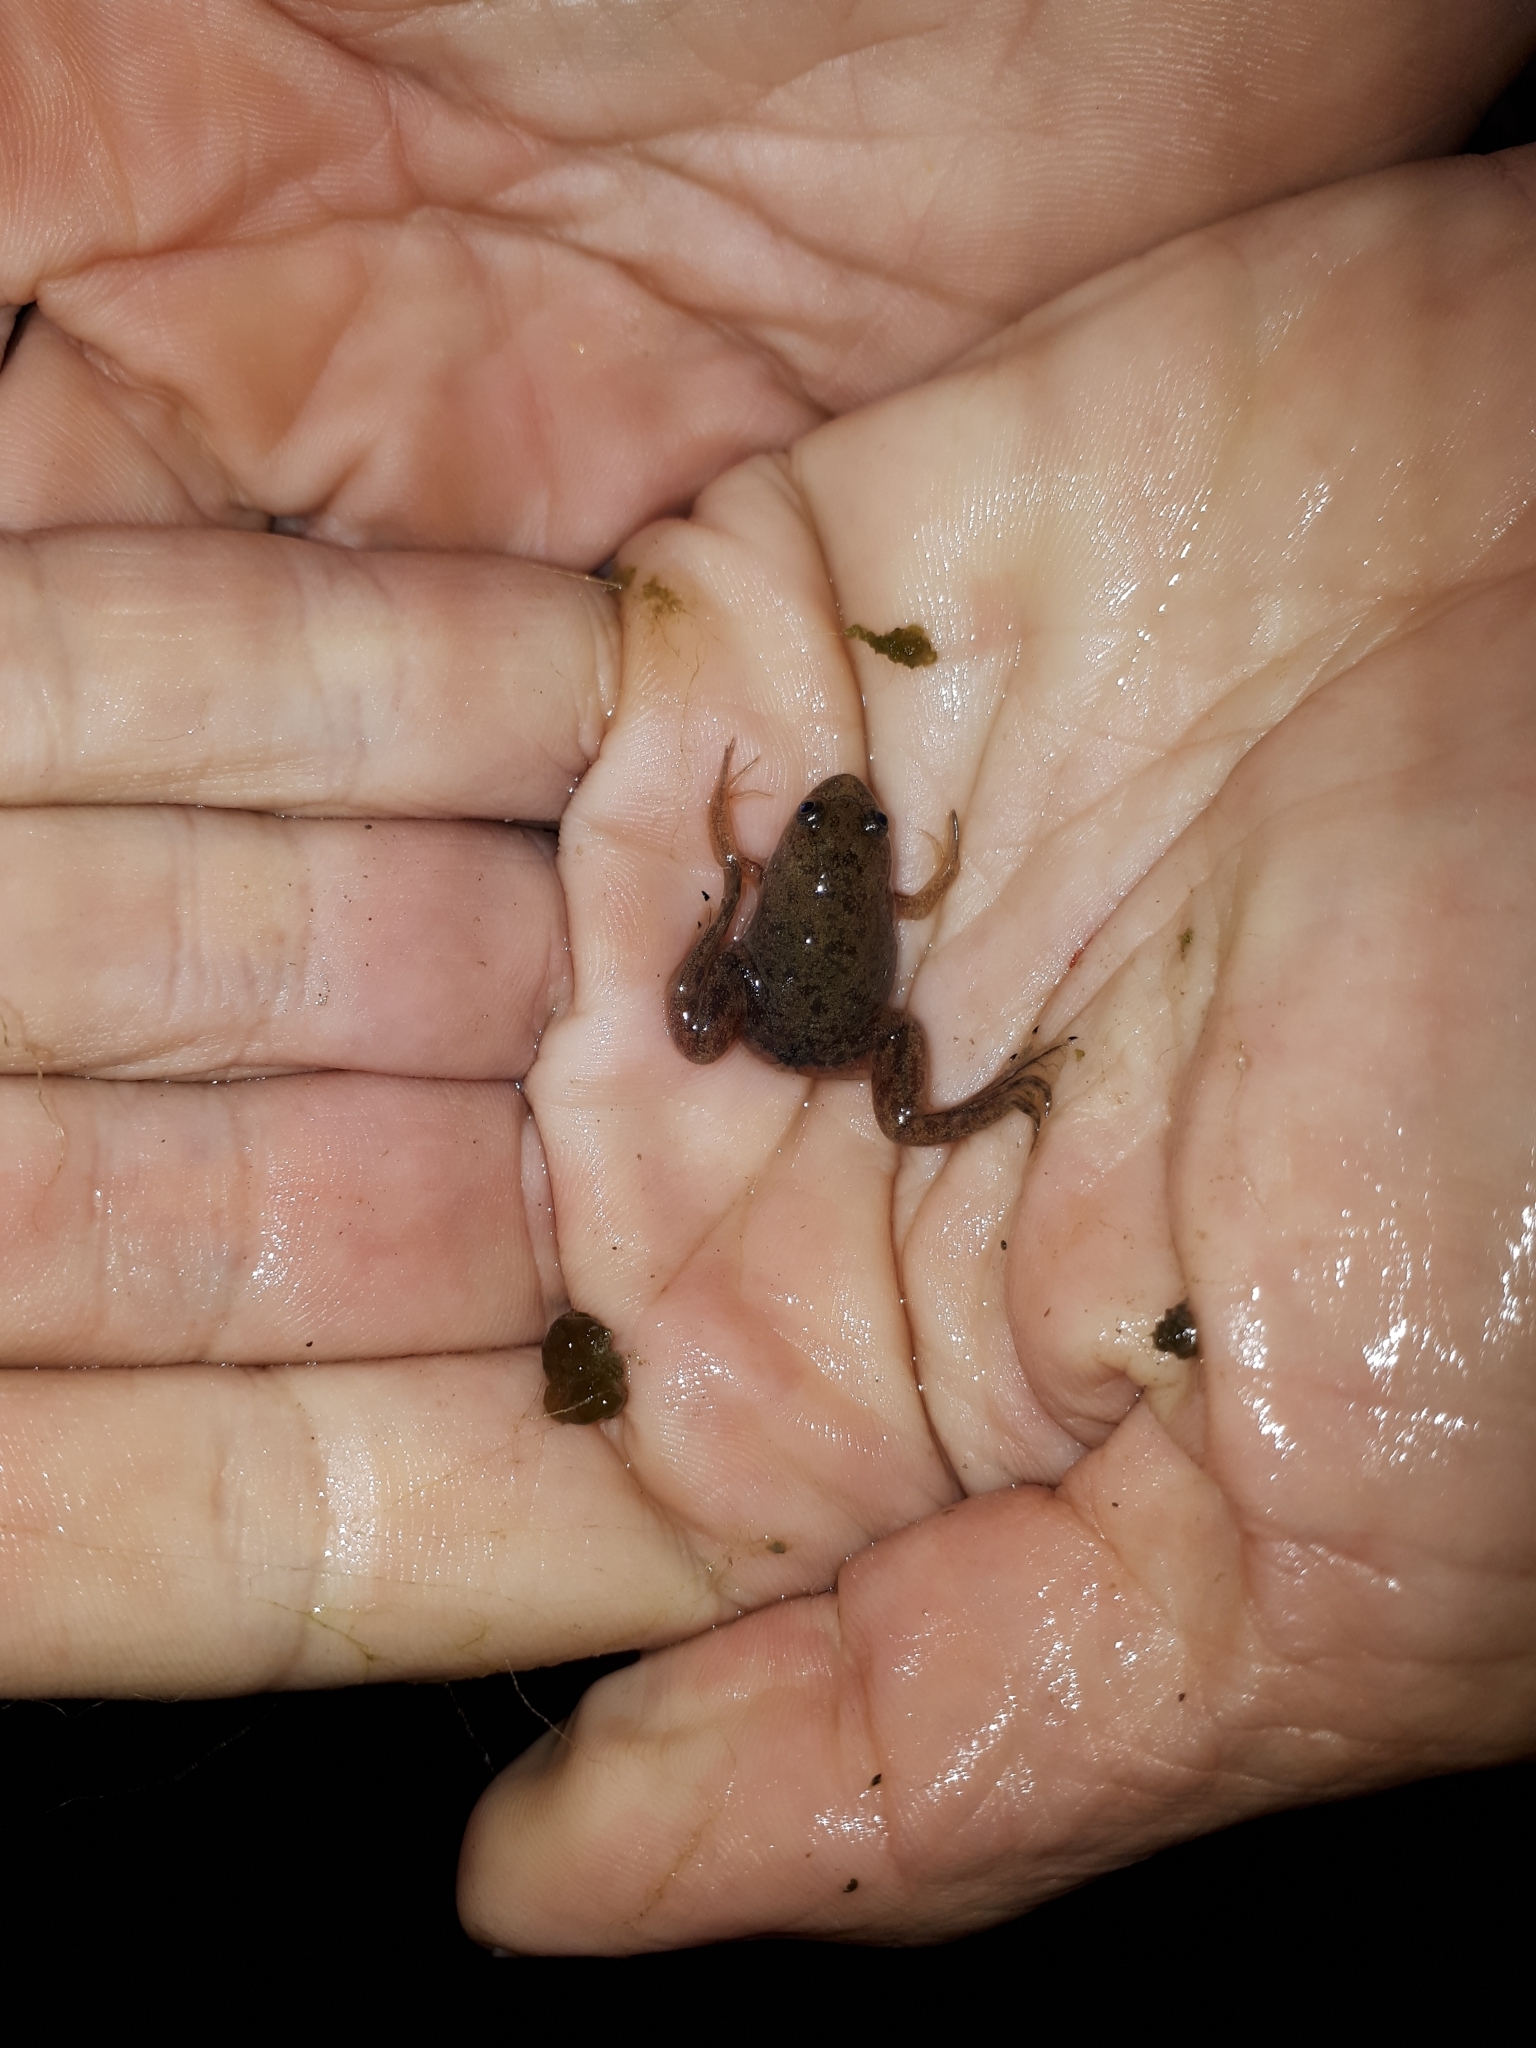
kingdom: Animalia
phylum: Chordata
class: Amphibia
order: Anura
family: Pipidae
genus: Xenopus
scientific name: Xenopus laevis
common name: African clawed frog
